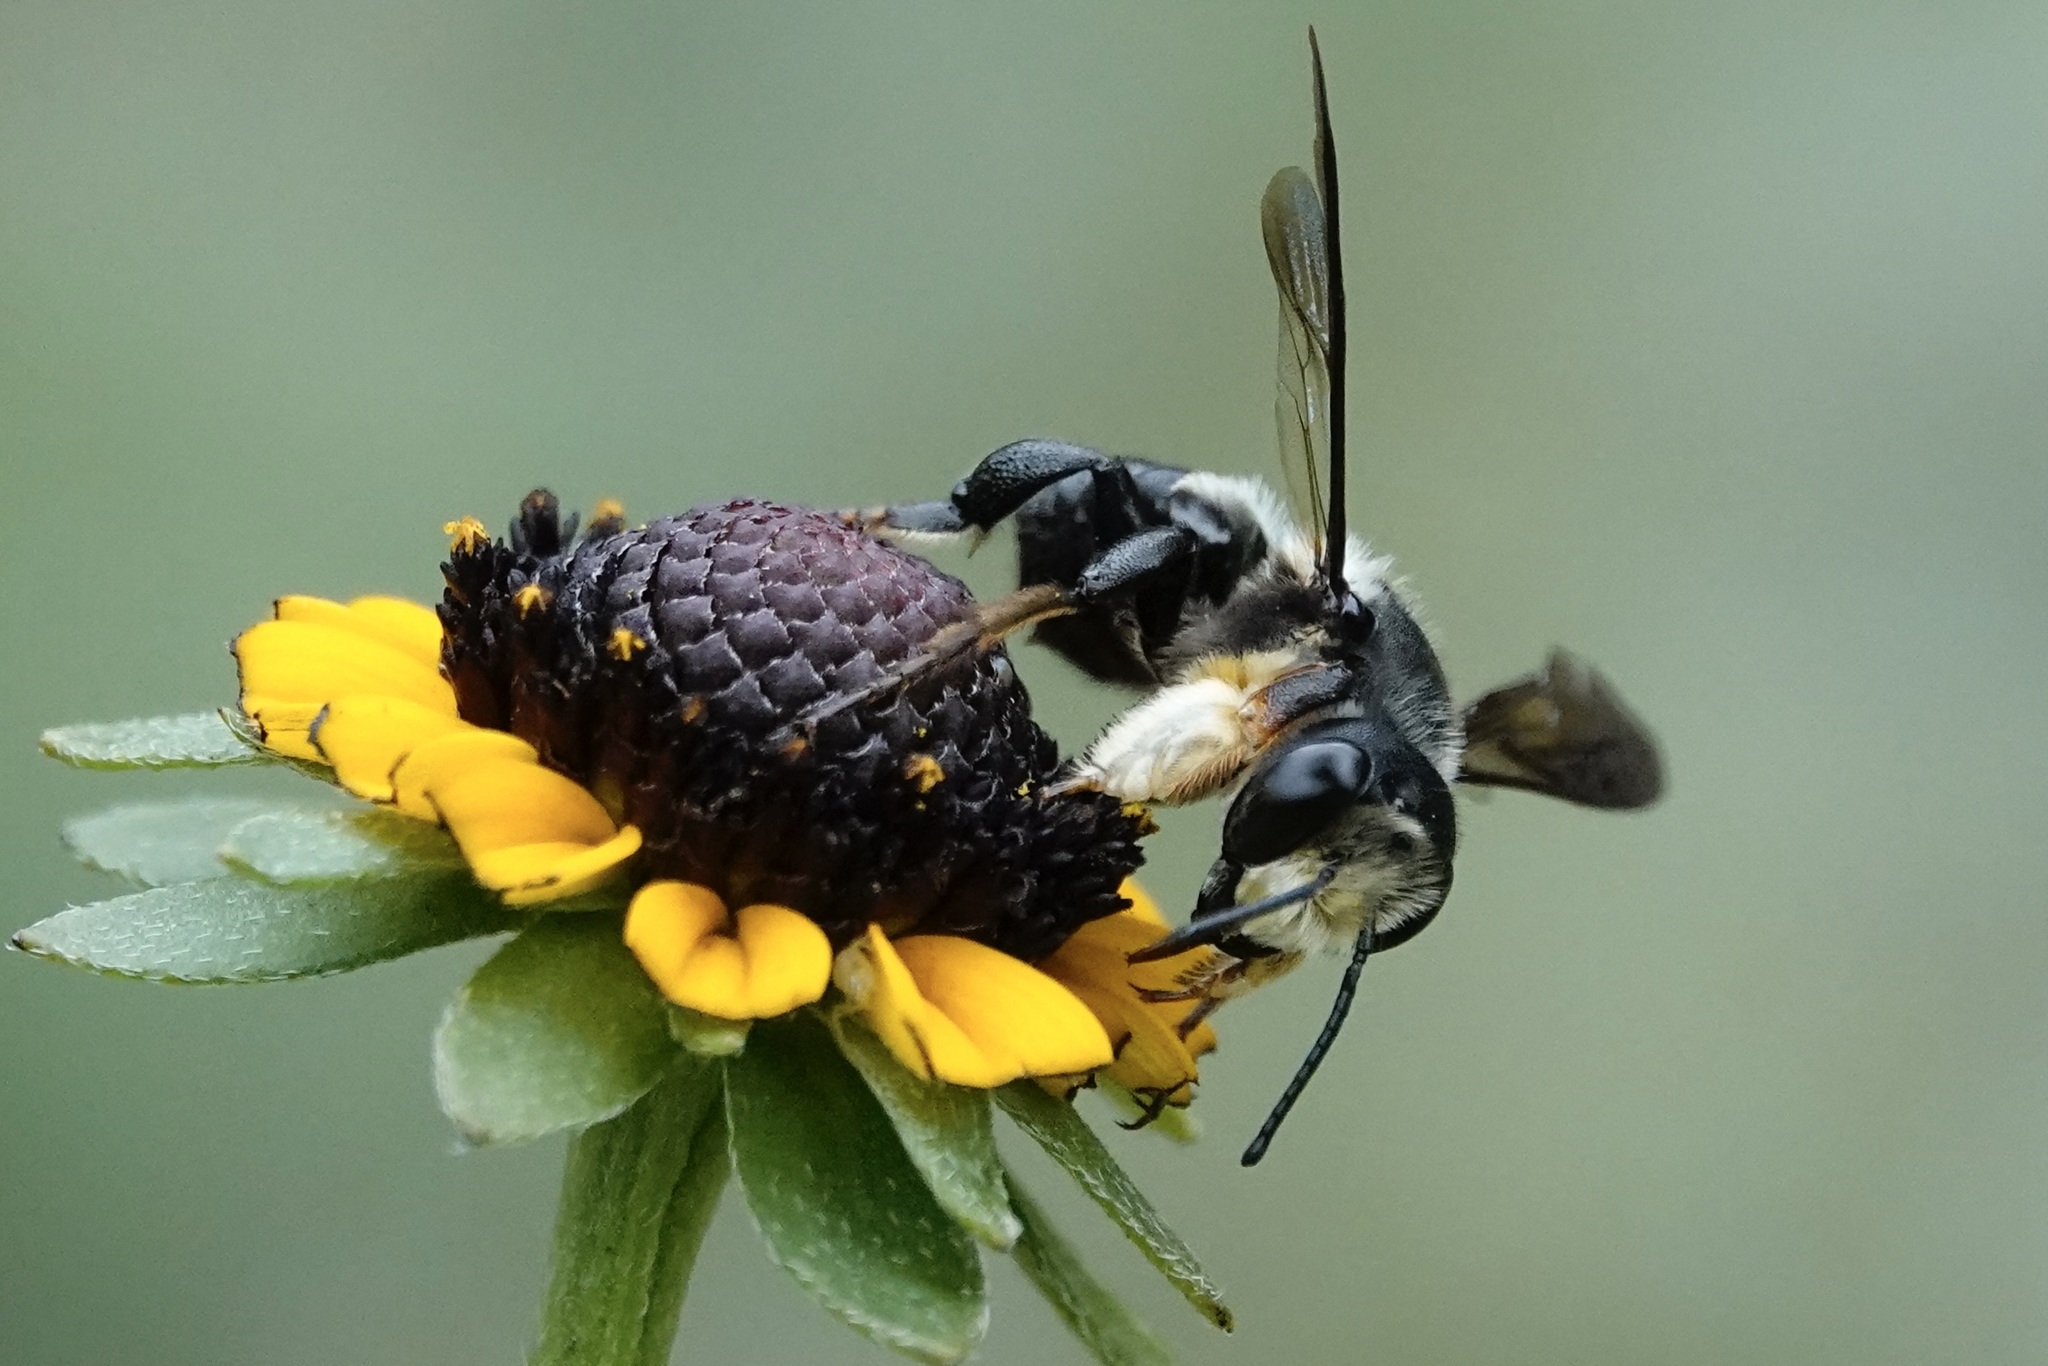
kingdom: Animalia
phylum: Arthropoda
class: Insecta
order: Hymenoptera
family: Megachilidae
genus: Megachile
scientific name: Megachile xylocopoides
